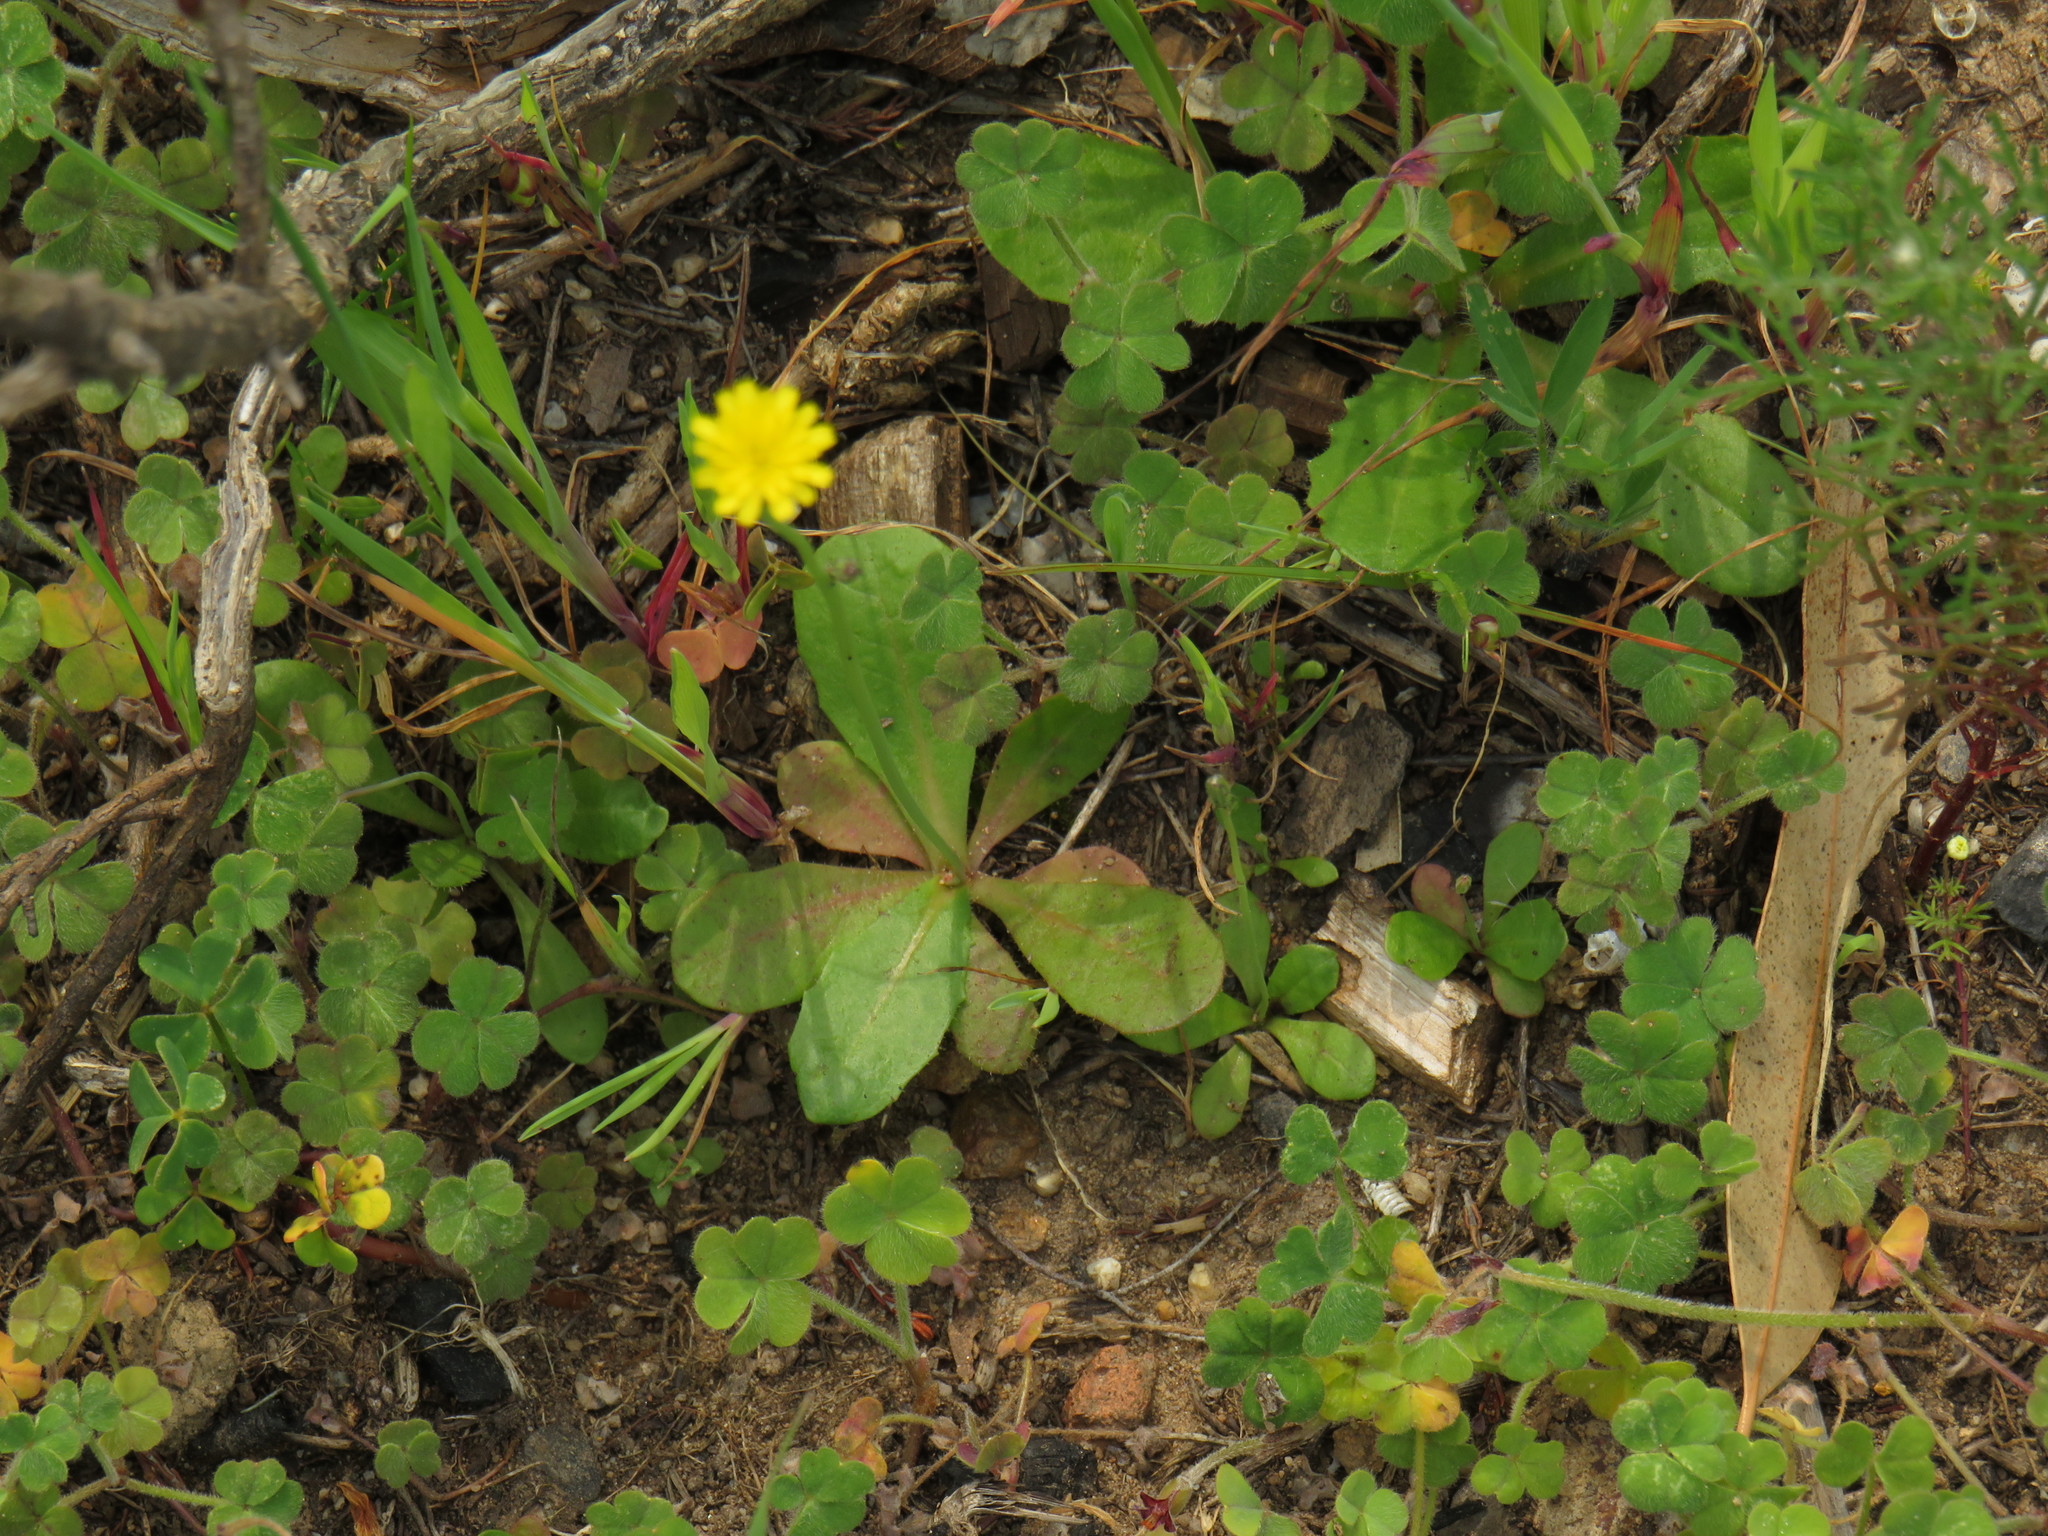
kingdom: Plantae
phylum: Tracheophyta
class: Magnoliopsida
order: Asterales
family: Asteraceae
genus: Hypochaeris
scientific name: Hypochaeris glabra
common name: Smooth catsear
